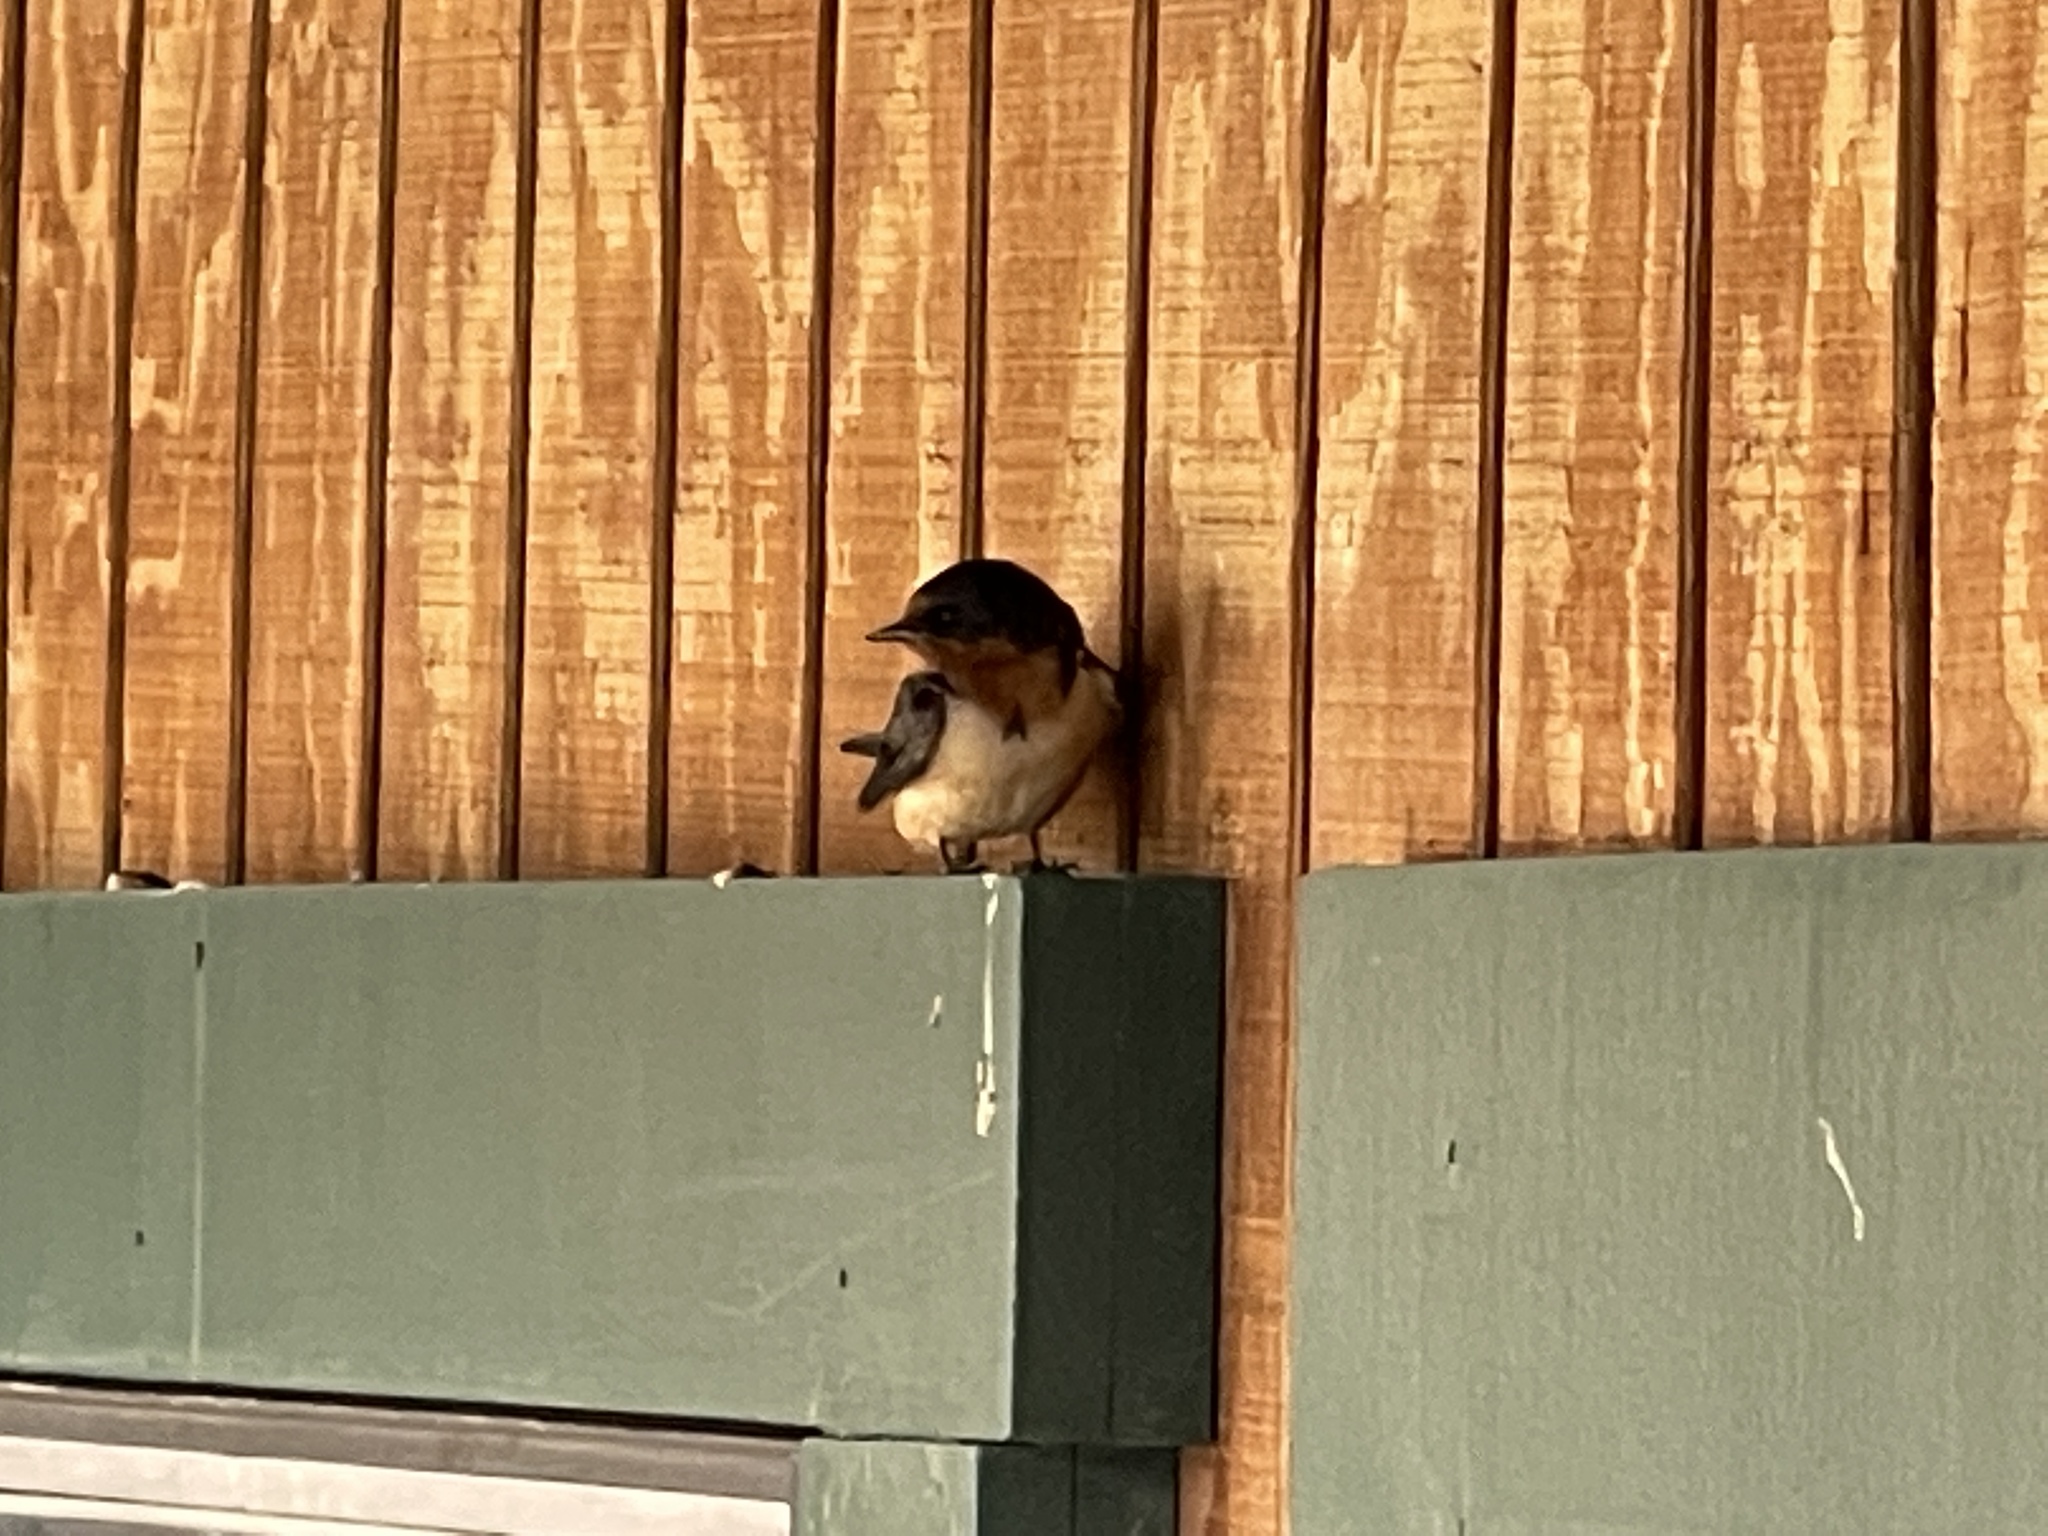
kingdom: Animalia
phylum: Chordata
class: Aves
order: Passeriformes
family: Hirundinidae
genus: Hirundo
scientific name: Hirundo rustica
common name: Barn swallow
